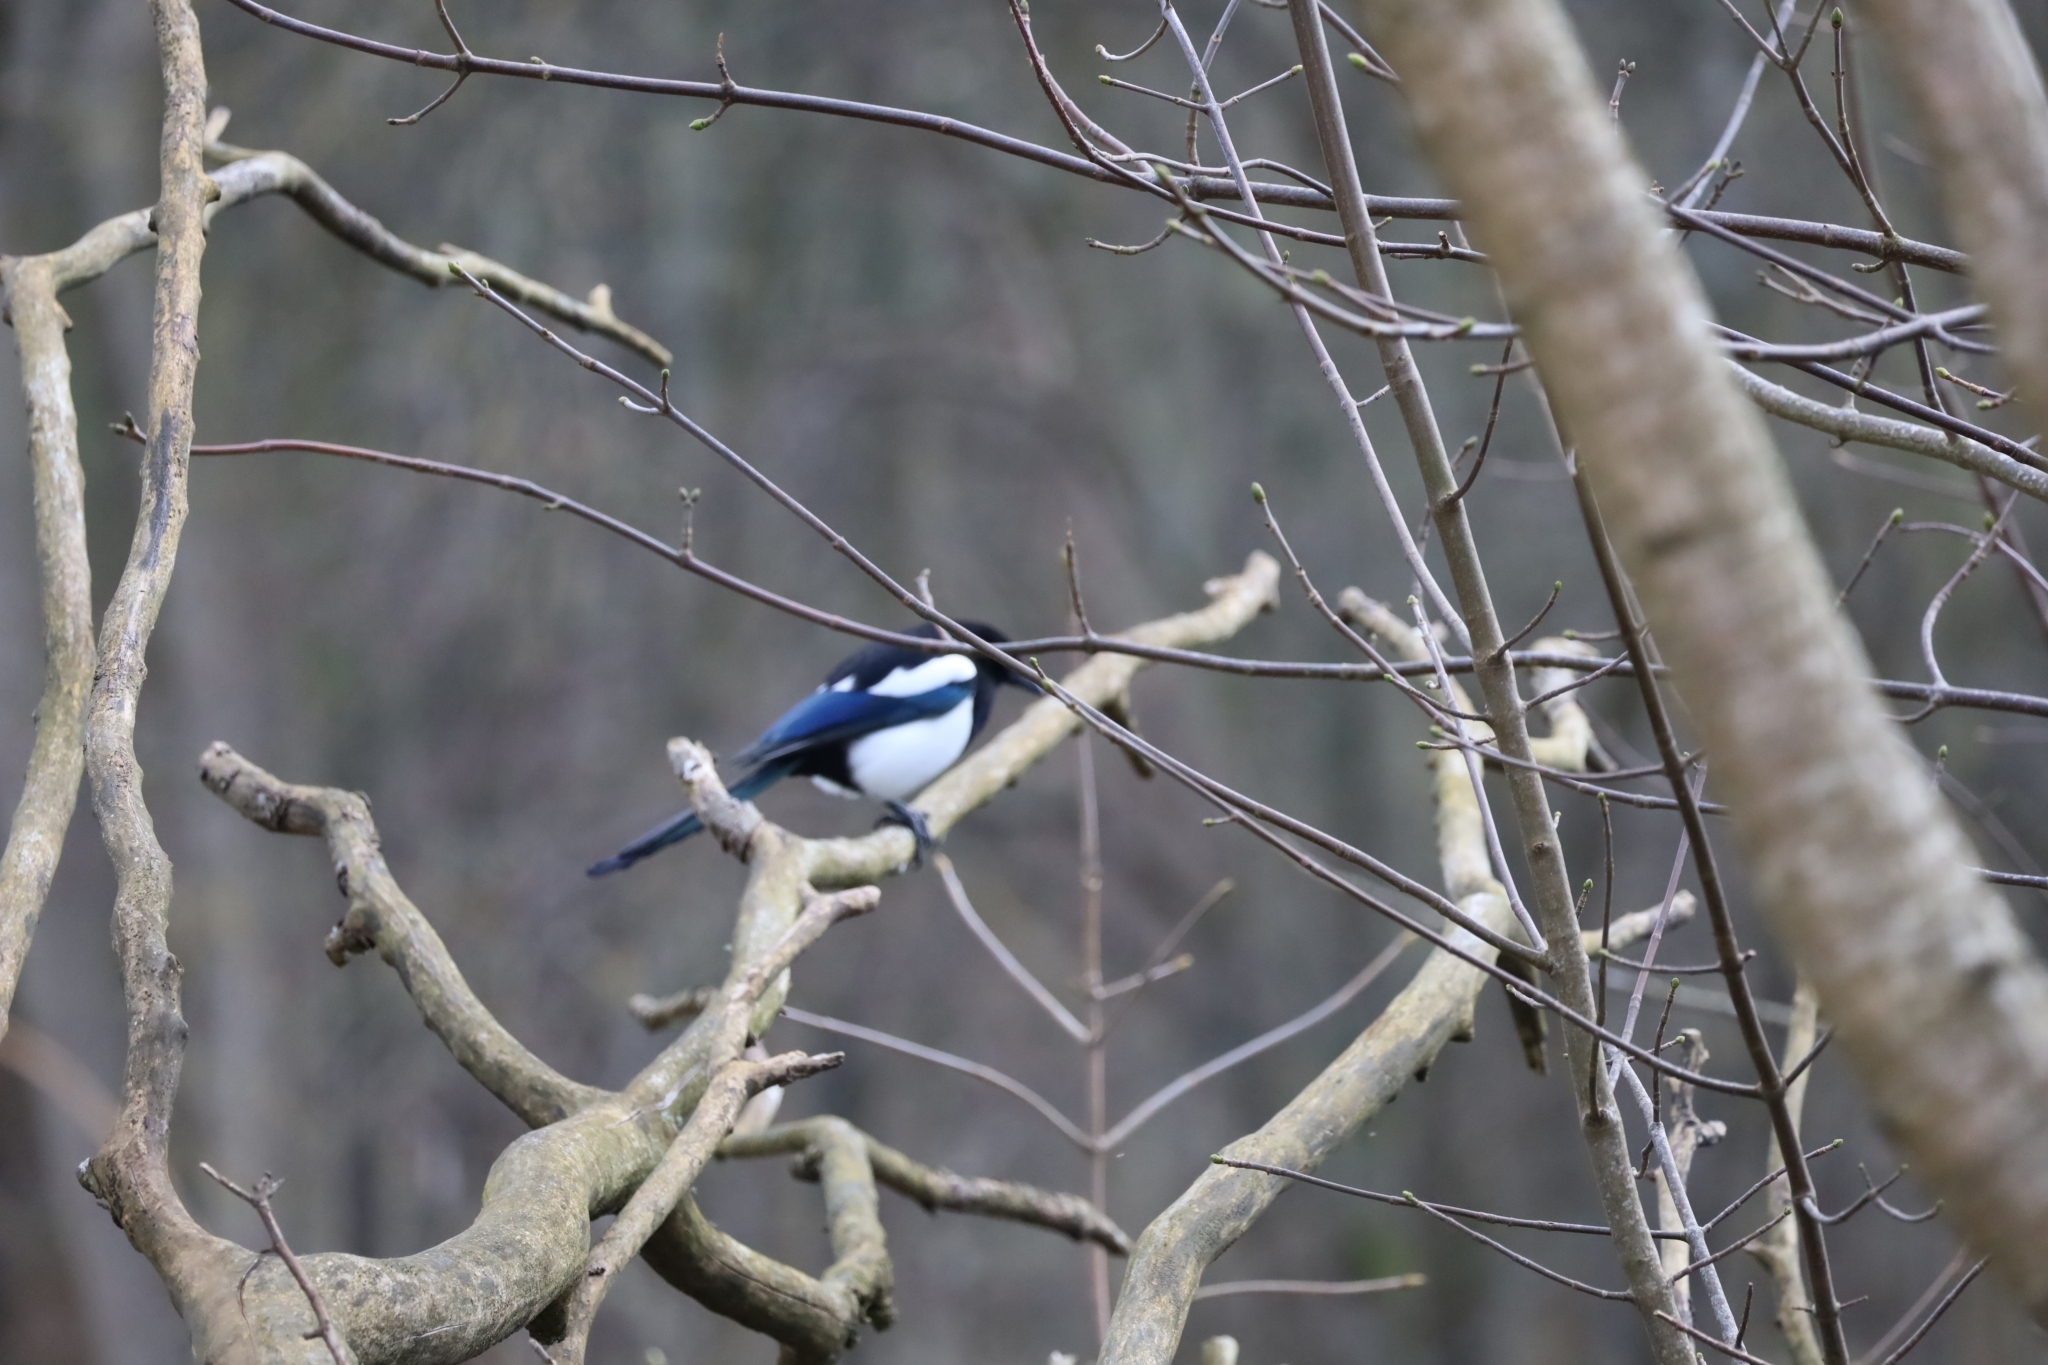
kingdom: Animalia
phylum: Chordata
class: Aves
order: Passeriformes
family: Corvidae
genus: Pica
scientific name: Pica pica
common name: Eurasian magpie
